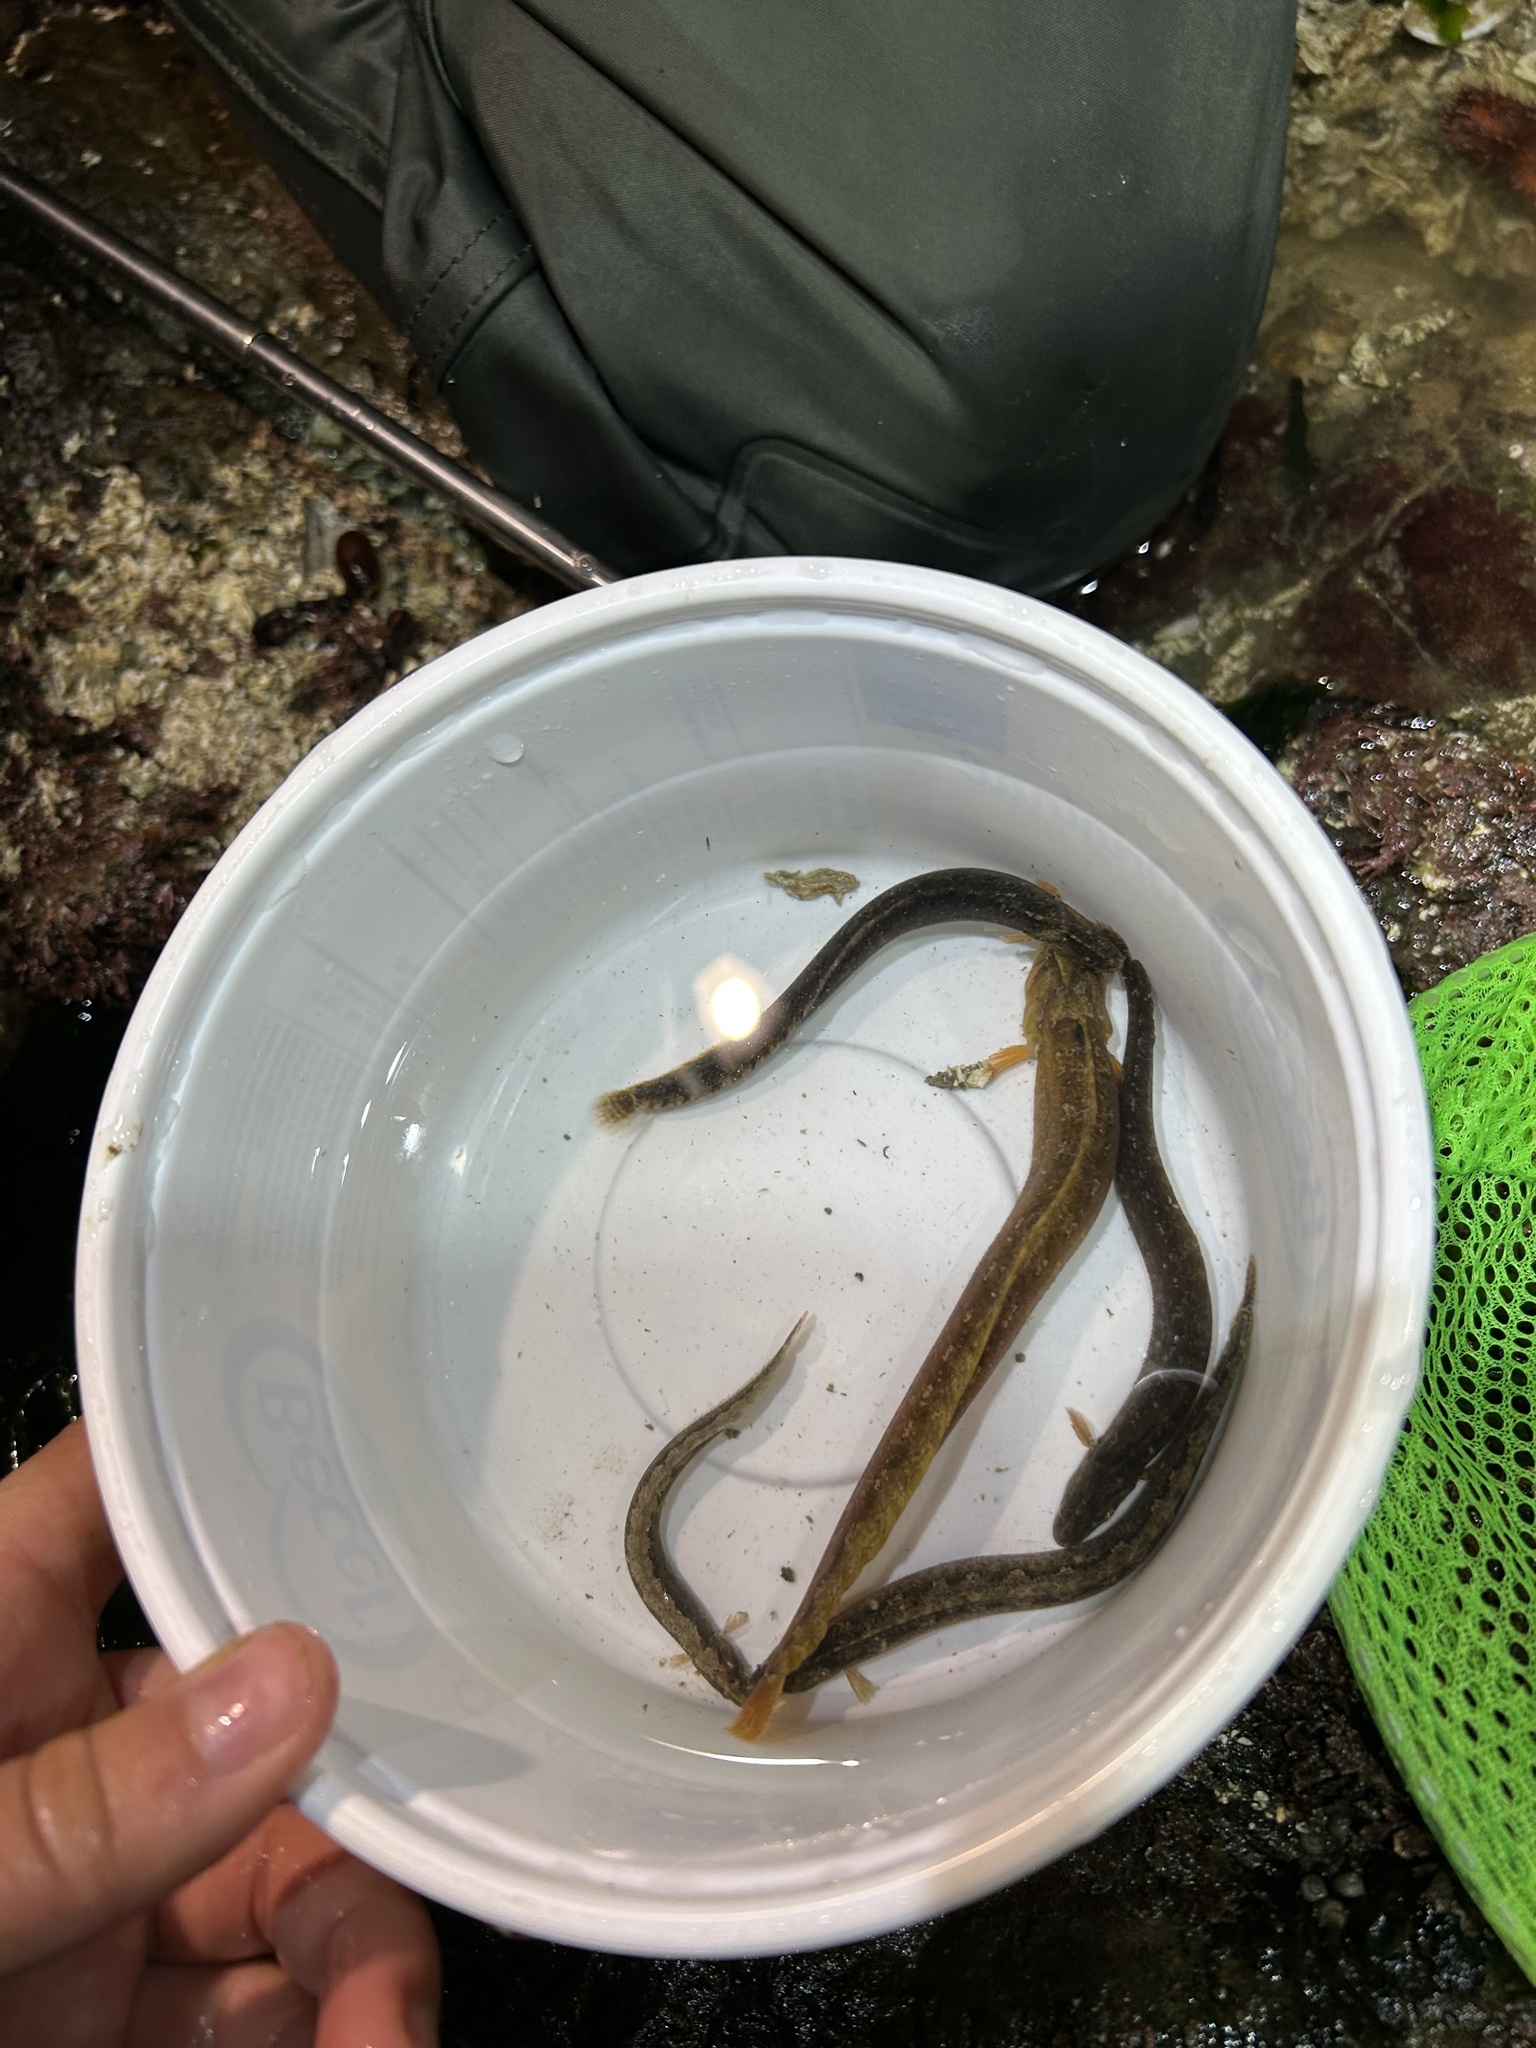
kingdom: Animalia
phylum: Chordata
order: Perciformes
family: Stichaeidae
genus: Anoplarchus
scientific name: Anoplarchus purpurescens
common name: High cockscomb
